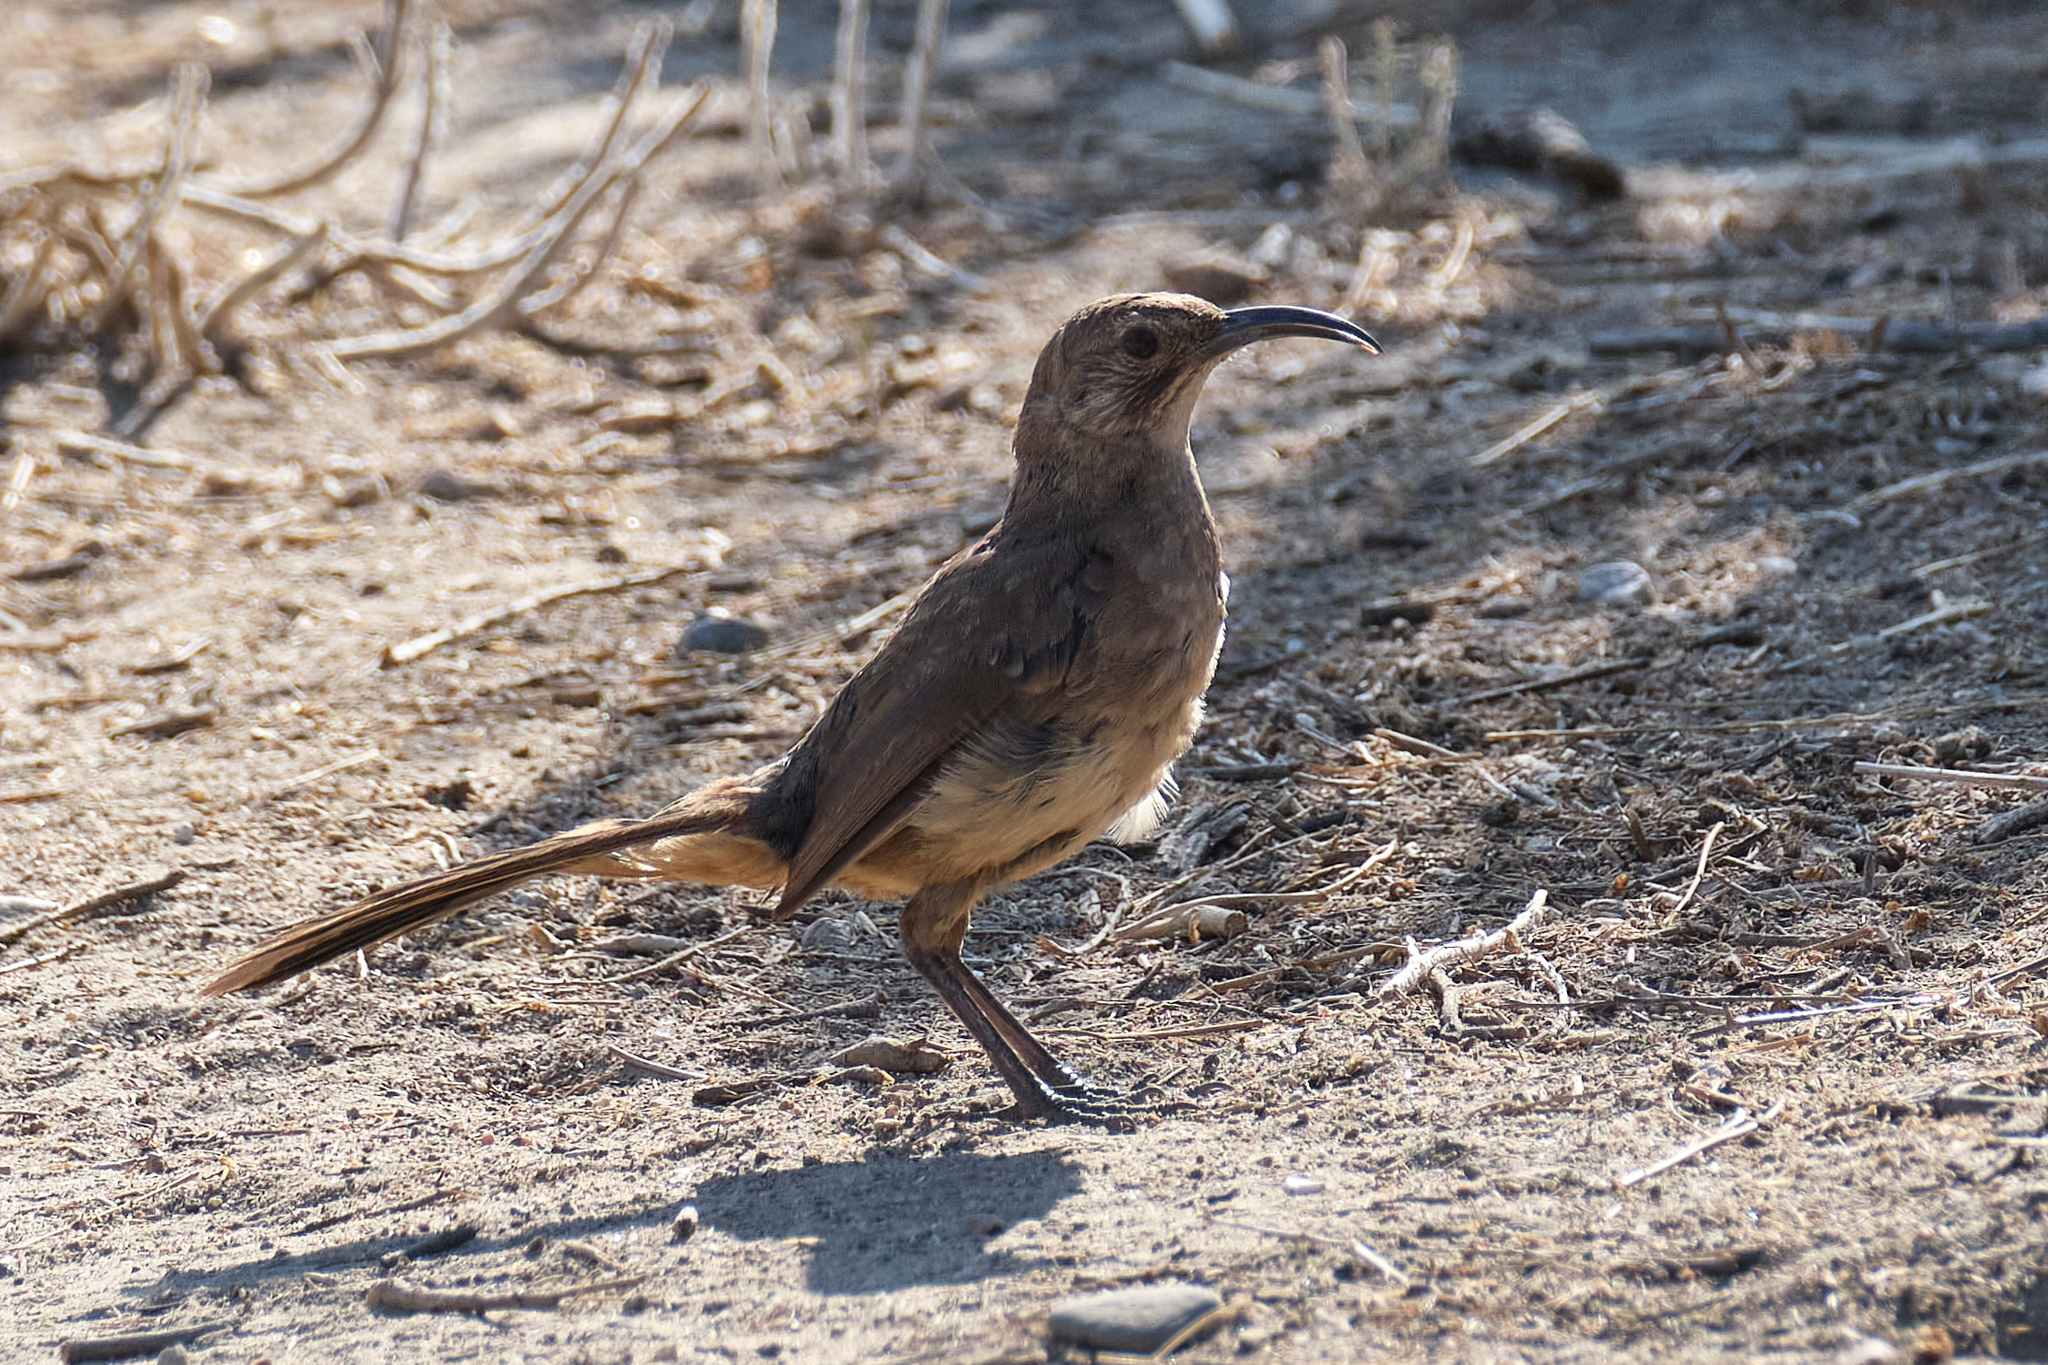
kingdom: Animalia
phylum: Chordata
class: Aves
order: Passeriformes
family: Mimidae
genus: Toxostoma
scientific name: Toxostoma redivivum
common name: California thrasher
